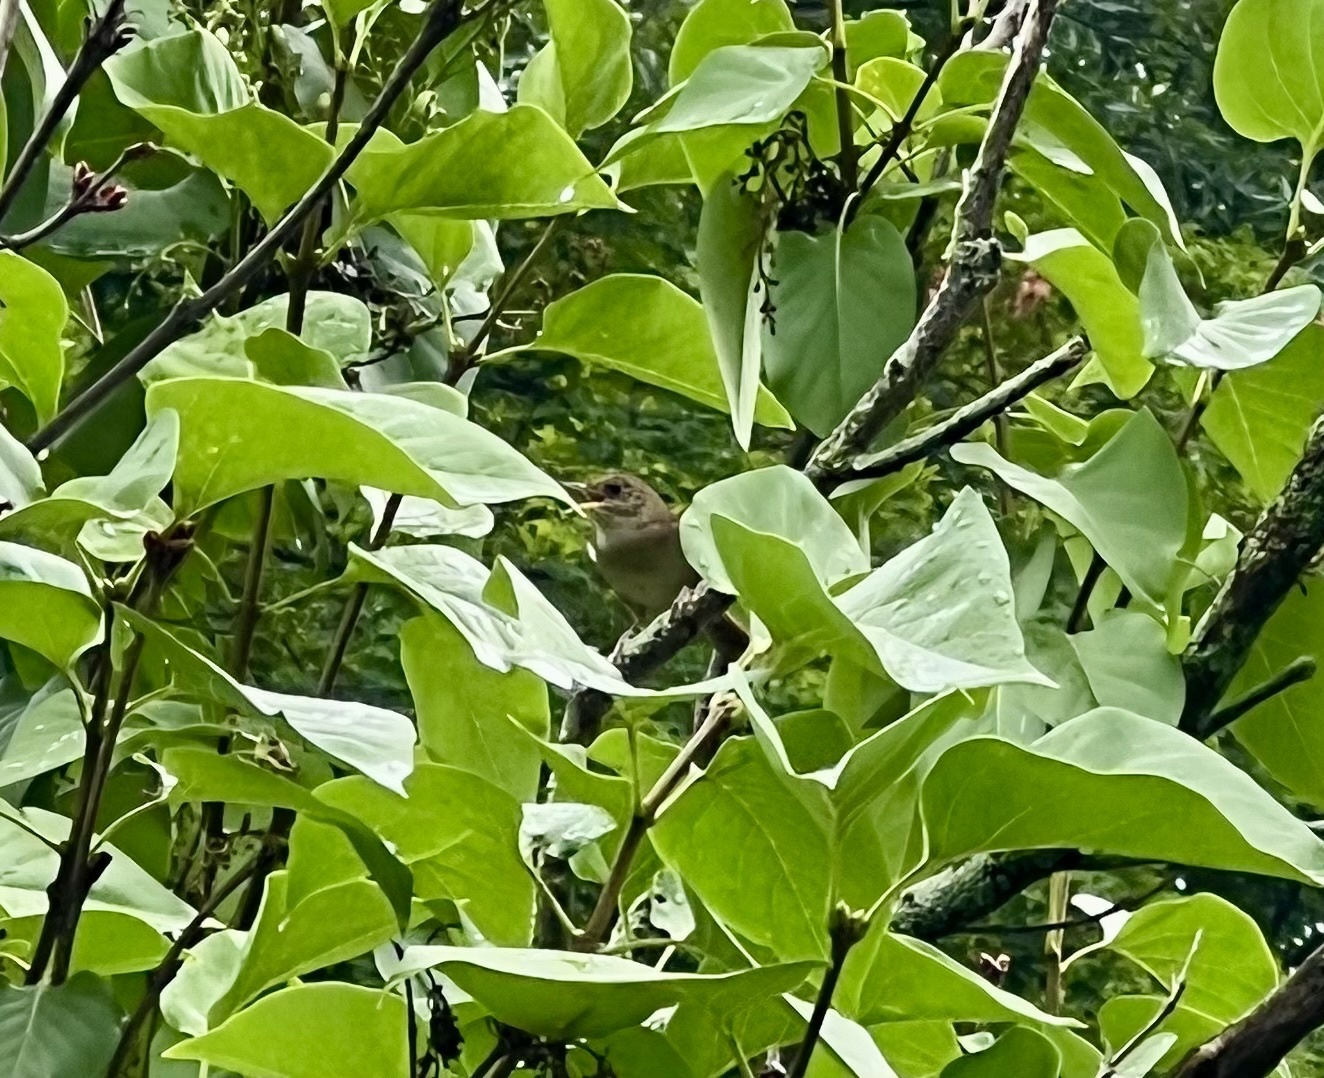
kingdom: Animalia
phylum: Chordata
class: Aves
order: Passeriformes
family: Troglodytidae
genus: Troglodytes
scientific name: Troglodytes aedon
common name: House wren
